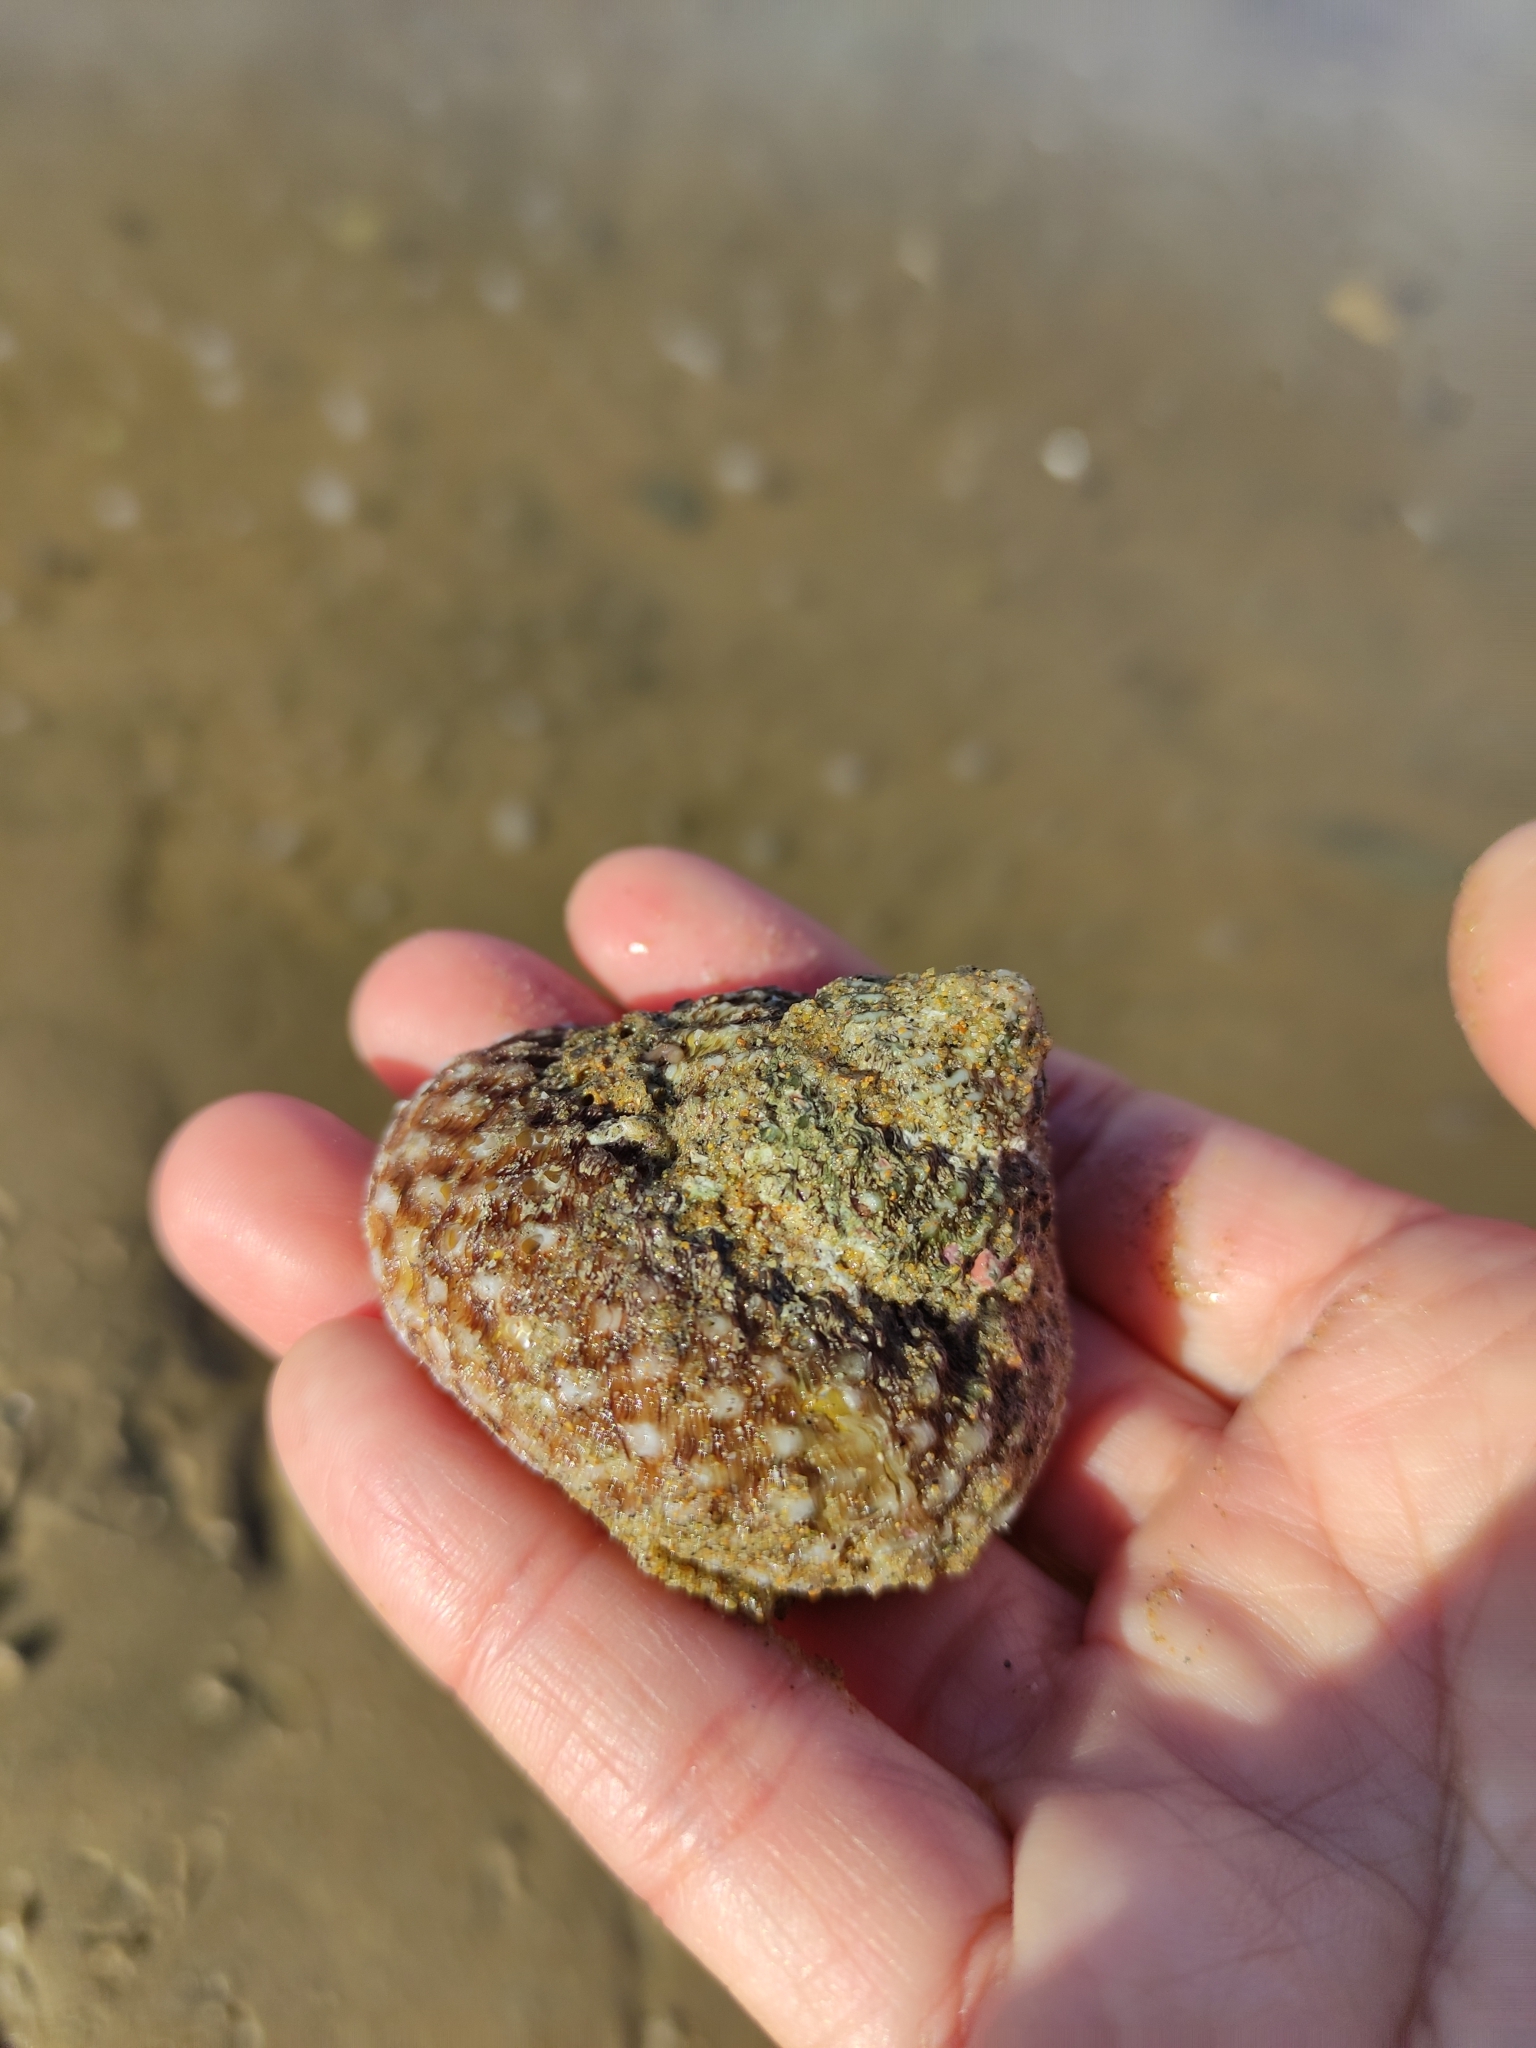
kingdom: Animalia
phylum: Mollusca
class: Gastropoda
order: Trochida
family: Turbinidae
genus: Cookia
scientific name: Cookia sulcata
